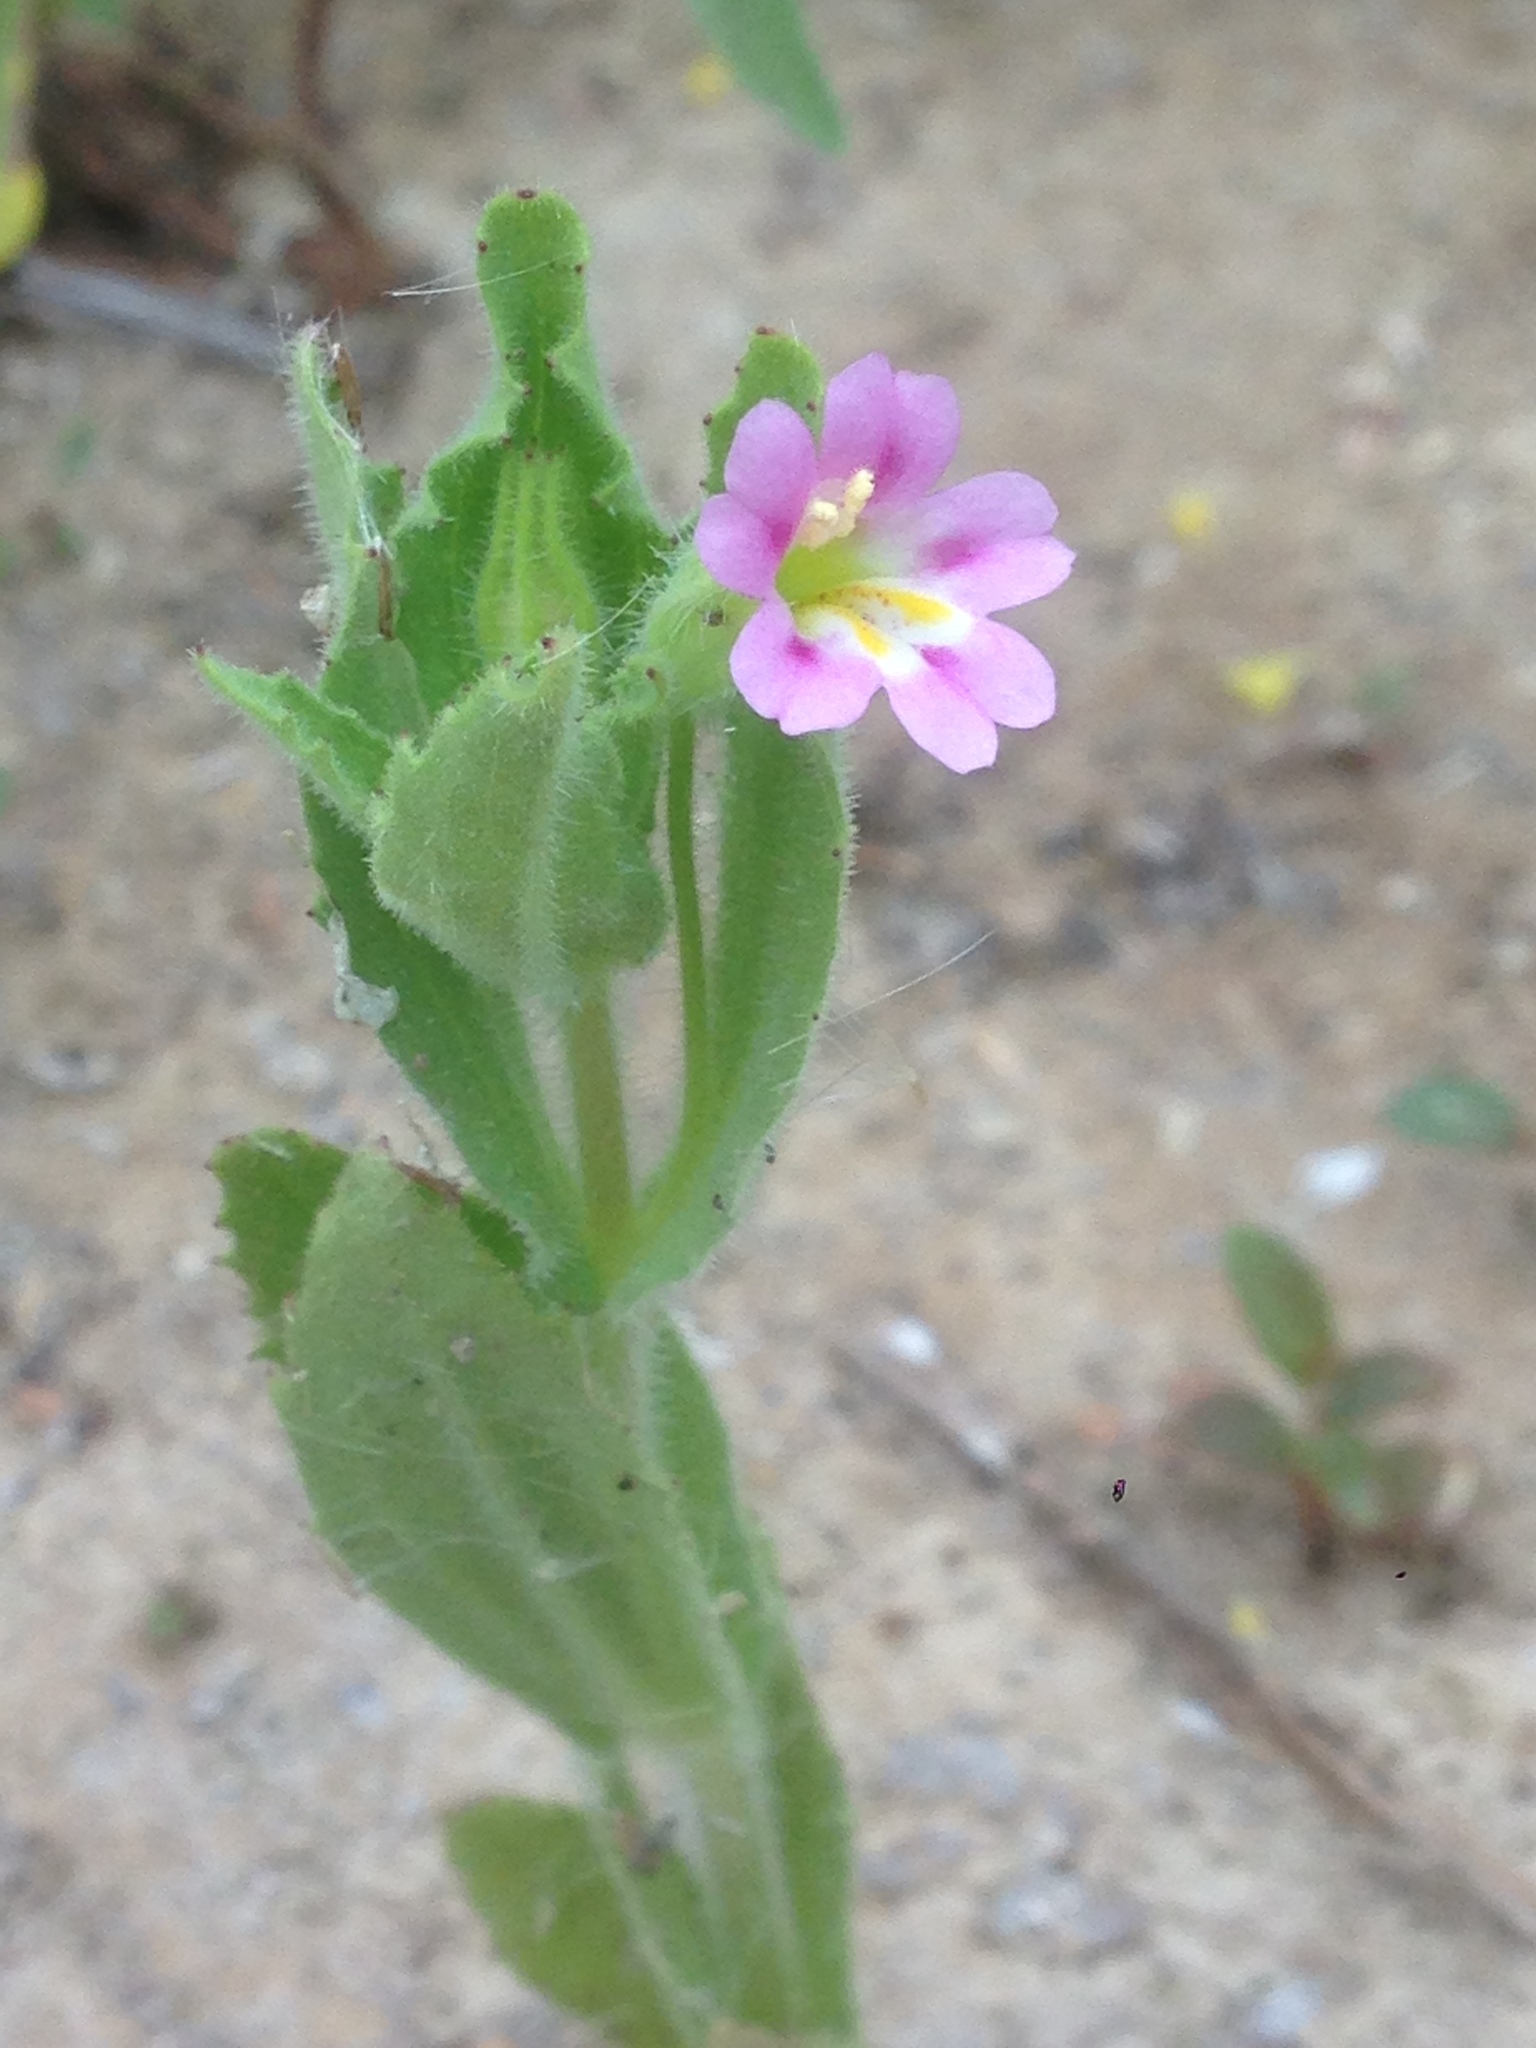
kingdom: Plantae
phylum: Tracheophyta
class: Magnoliopsida
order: Lamiales
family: Phrymaceae
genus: Erythranthe
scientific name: Erythranthe parishii
